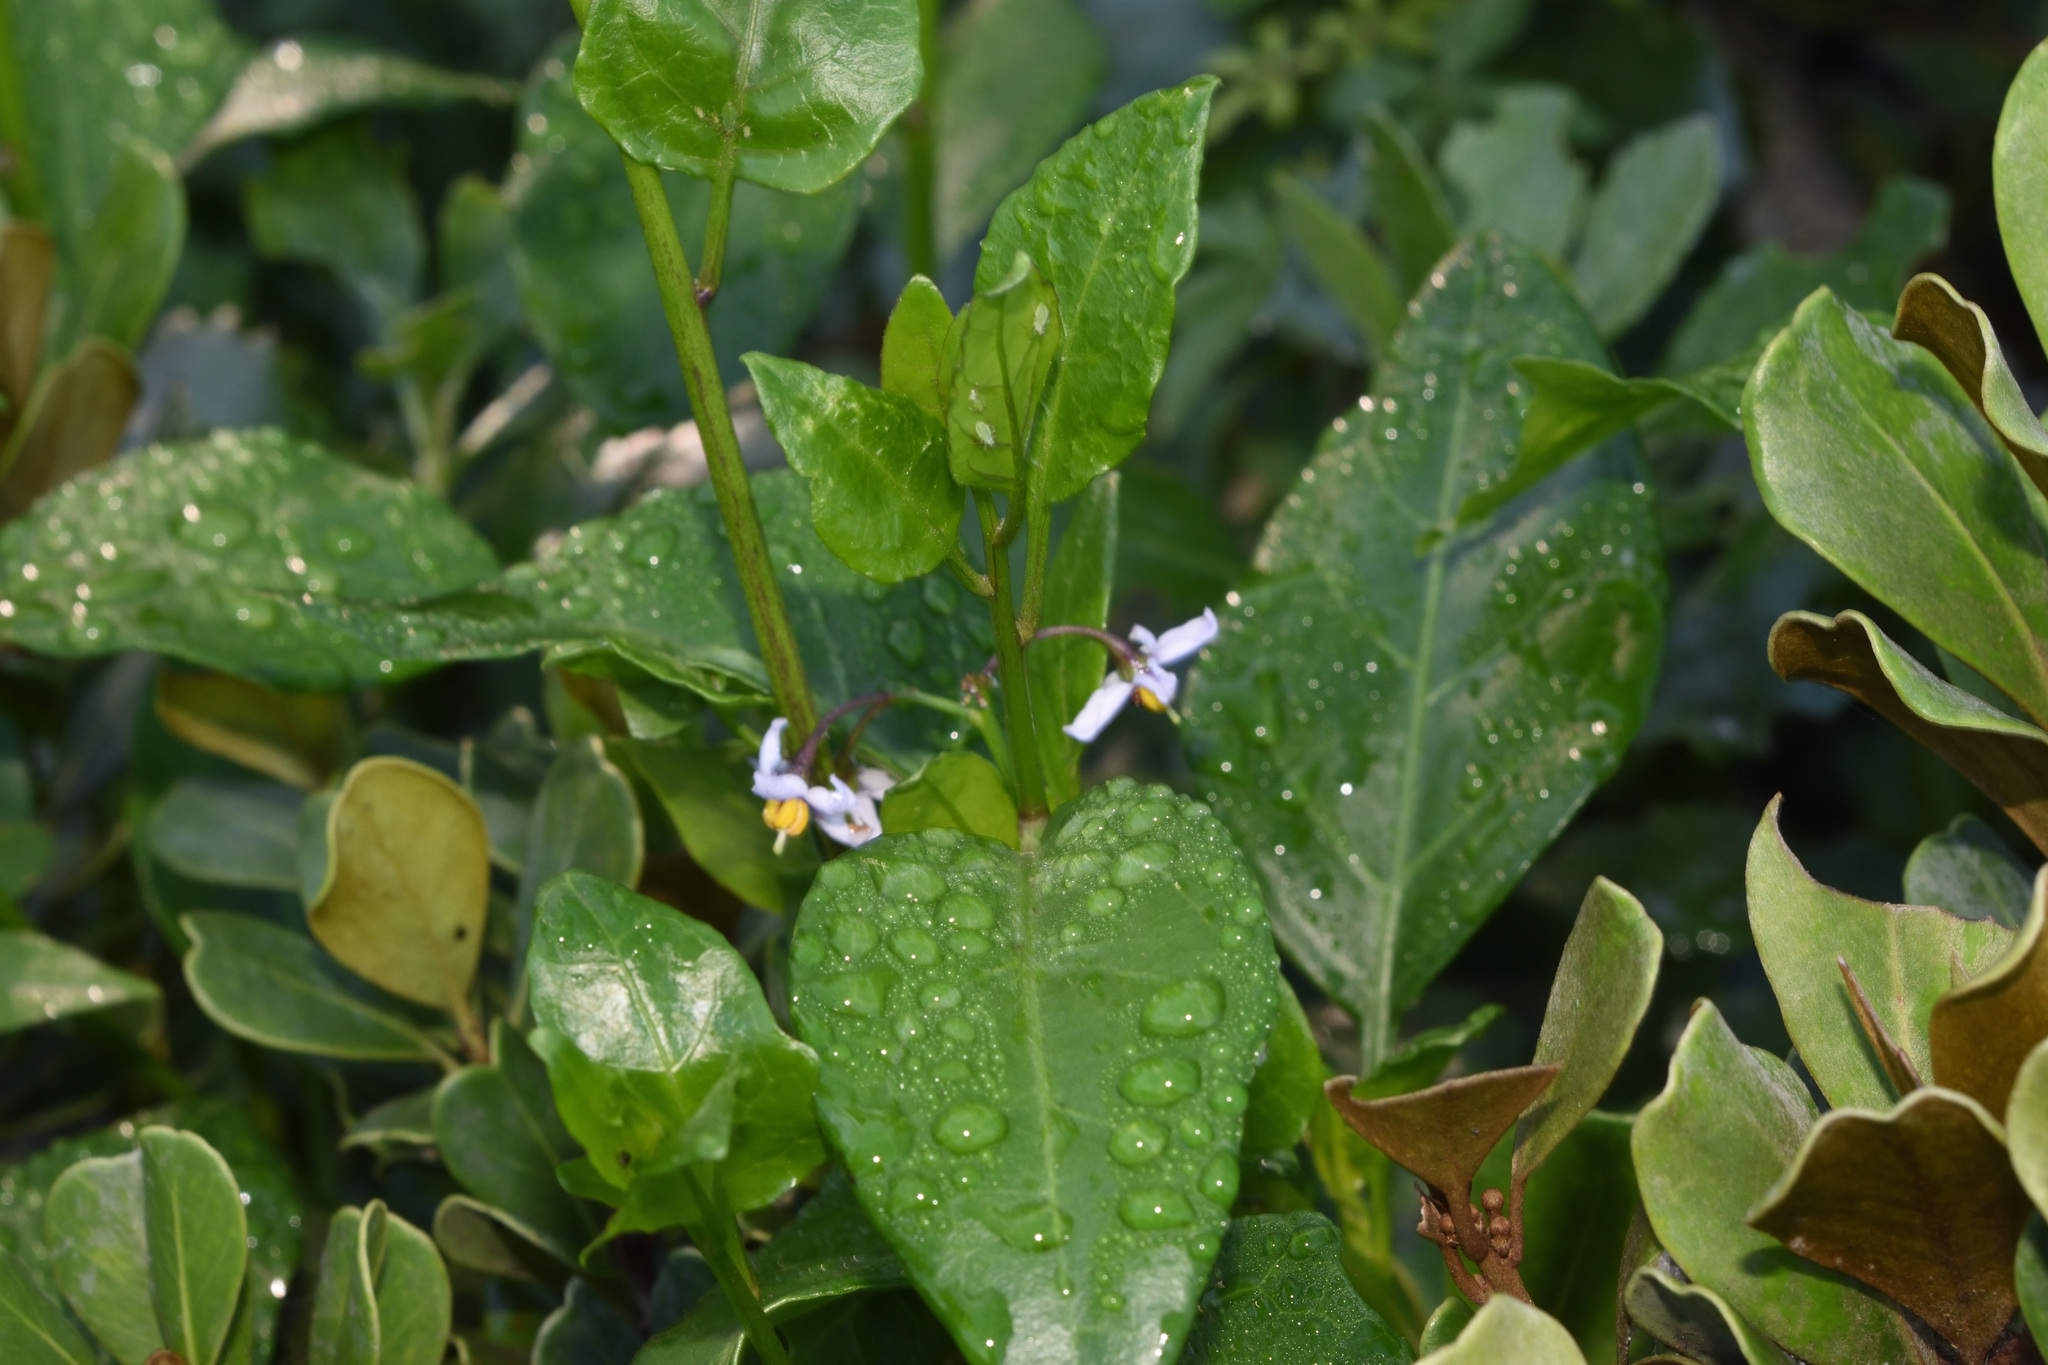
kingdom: Plantae
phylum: Tracheophyta
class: Magnoliopsida
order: Solanales
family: Solanaceae
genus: Solanum
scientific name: Solanum africanum
